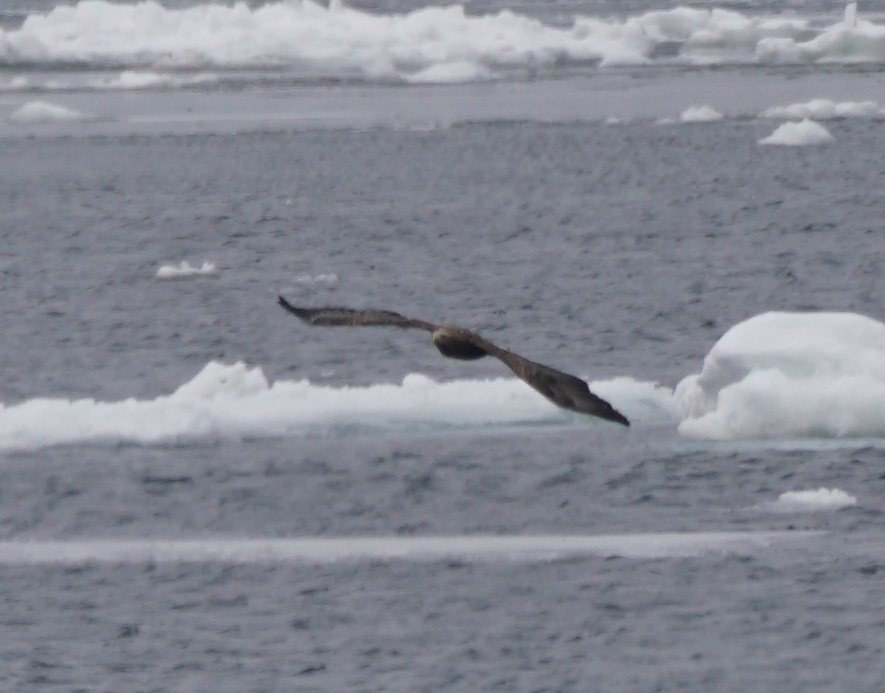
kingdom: Animalia
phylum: Chordata
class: Aves
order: Accipitriformes
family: Accipitridae
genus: Haliaeetus
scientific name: Haliaeetus albicilla
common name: White-tailed eagle
